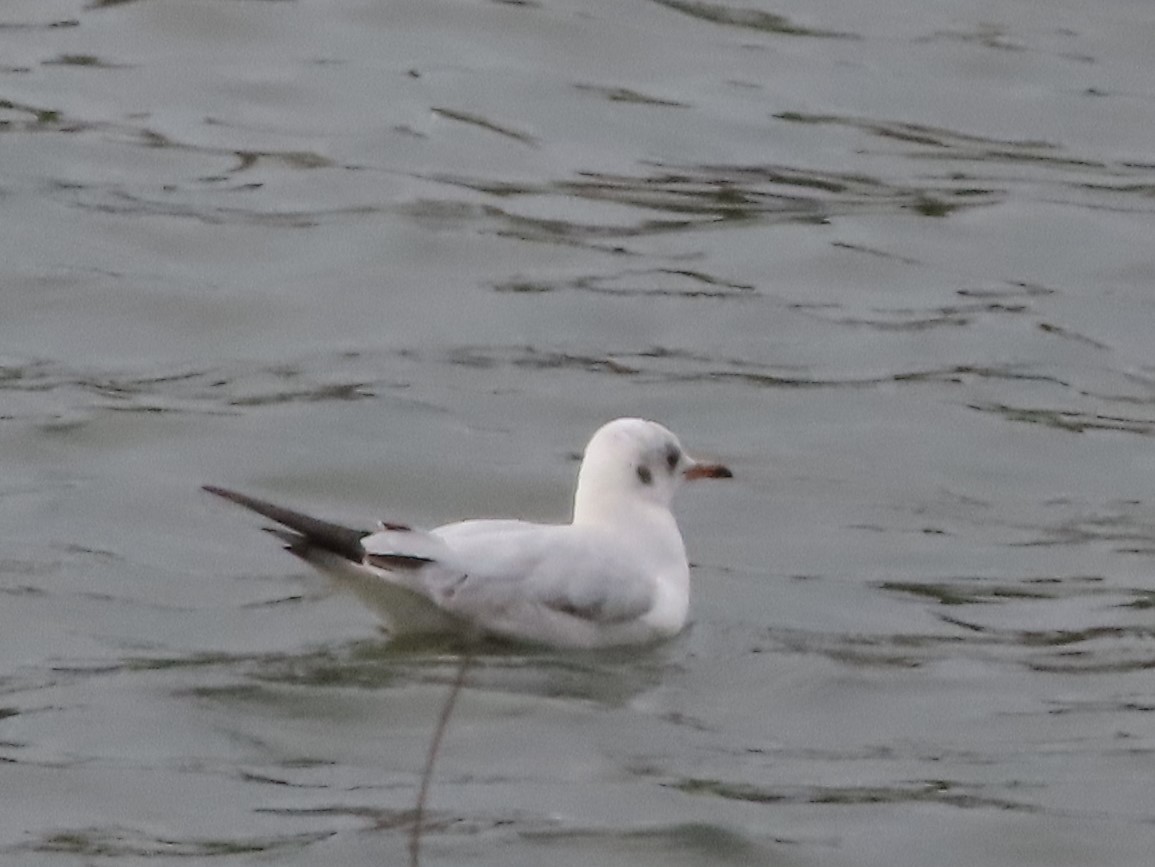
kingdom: Animalia
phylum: Chordata
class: Aves
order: Charadriiformes
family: Laridae
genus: Chroicocephalus
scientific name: Chroicocephalus ridibundus
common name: Black-headed gull
